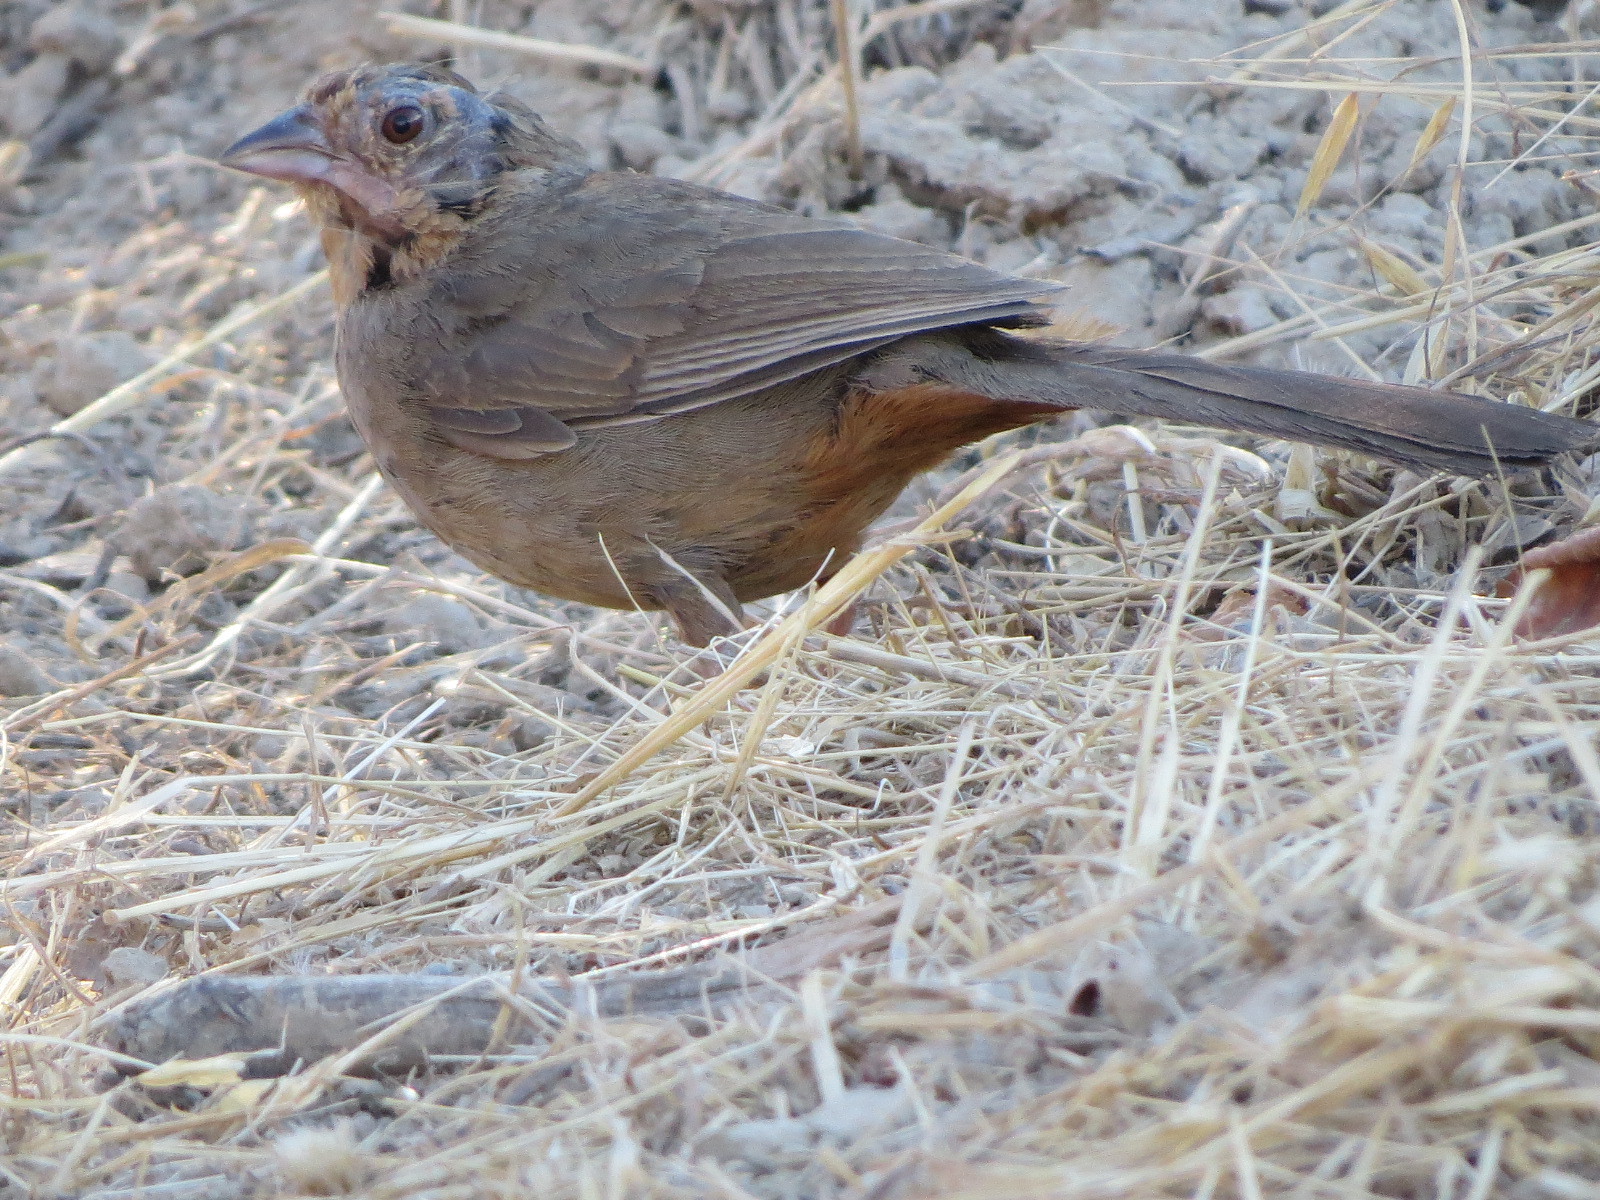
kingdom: Animalia
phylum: Chordata
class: Aves
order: Passeriformes
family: Passerellidae
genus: Melozone
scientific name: Melozone crissalis
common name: California towhee
